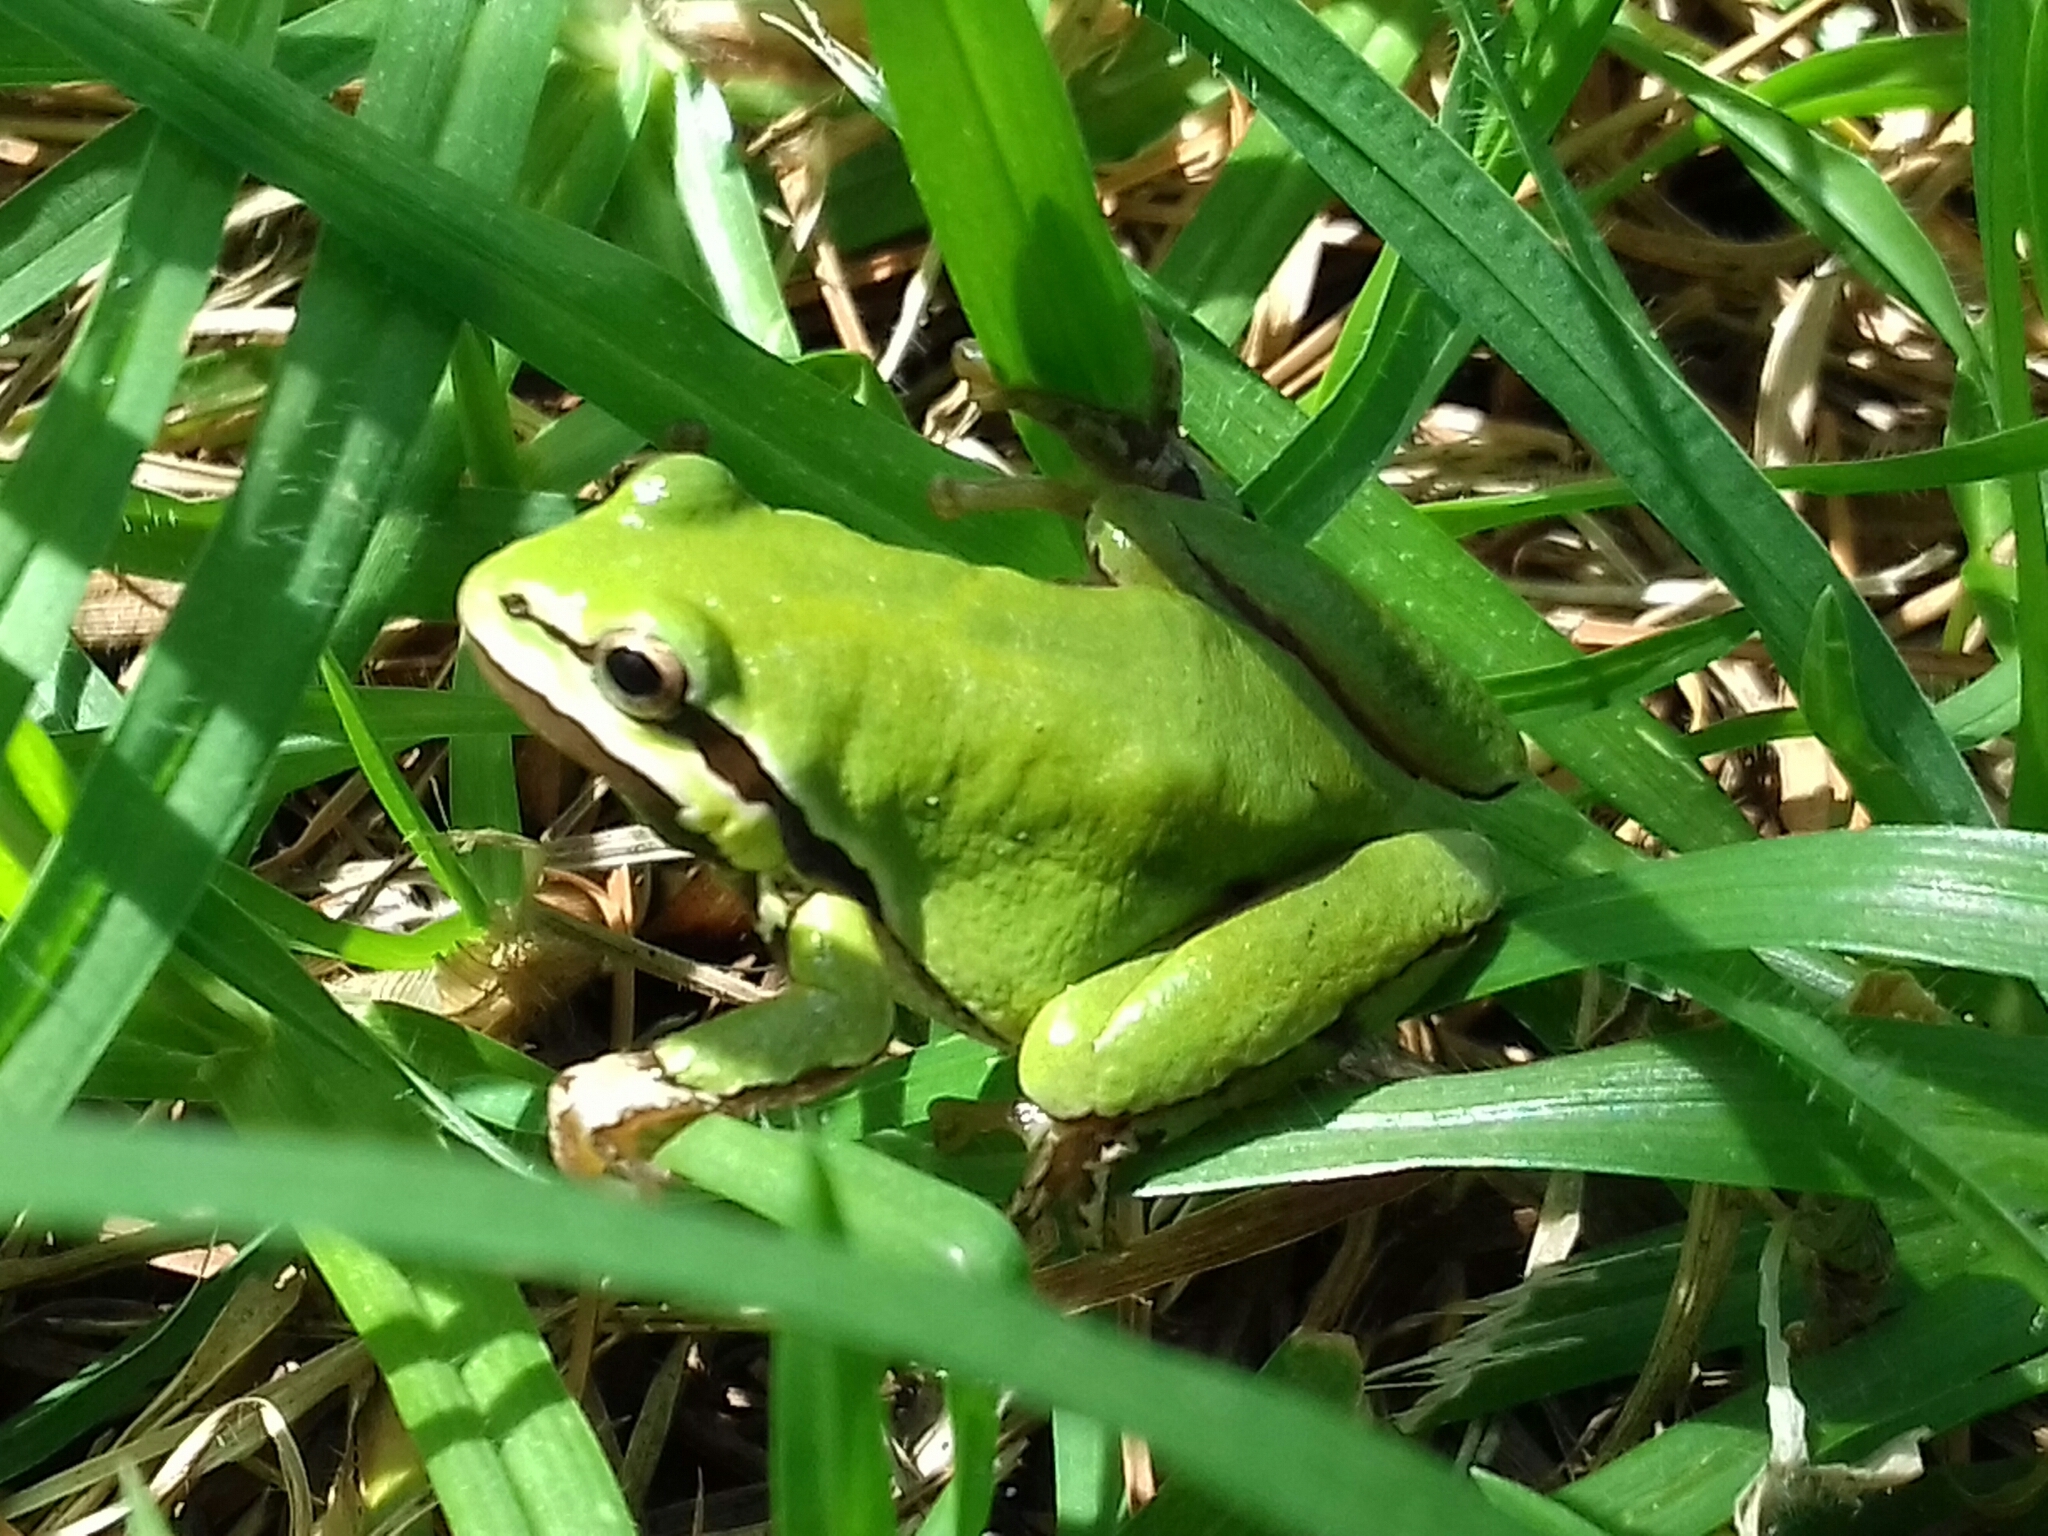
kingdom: Animalia
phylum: Chordata
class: Amphibia
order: Anura
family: Hylidae
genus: Dryophytes
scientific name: Dryophytes eximius
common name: Mountain treefrog
